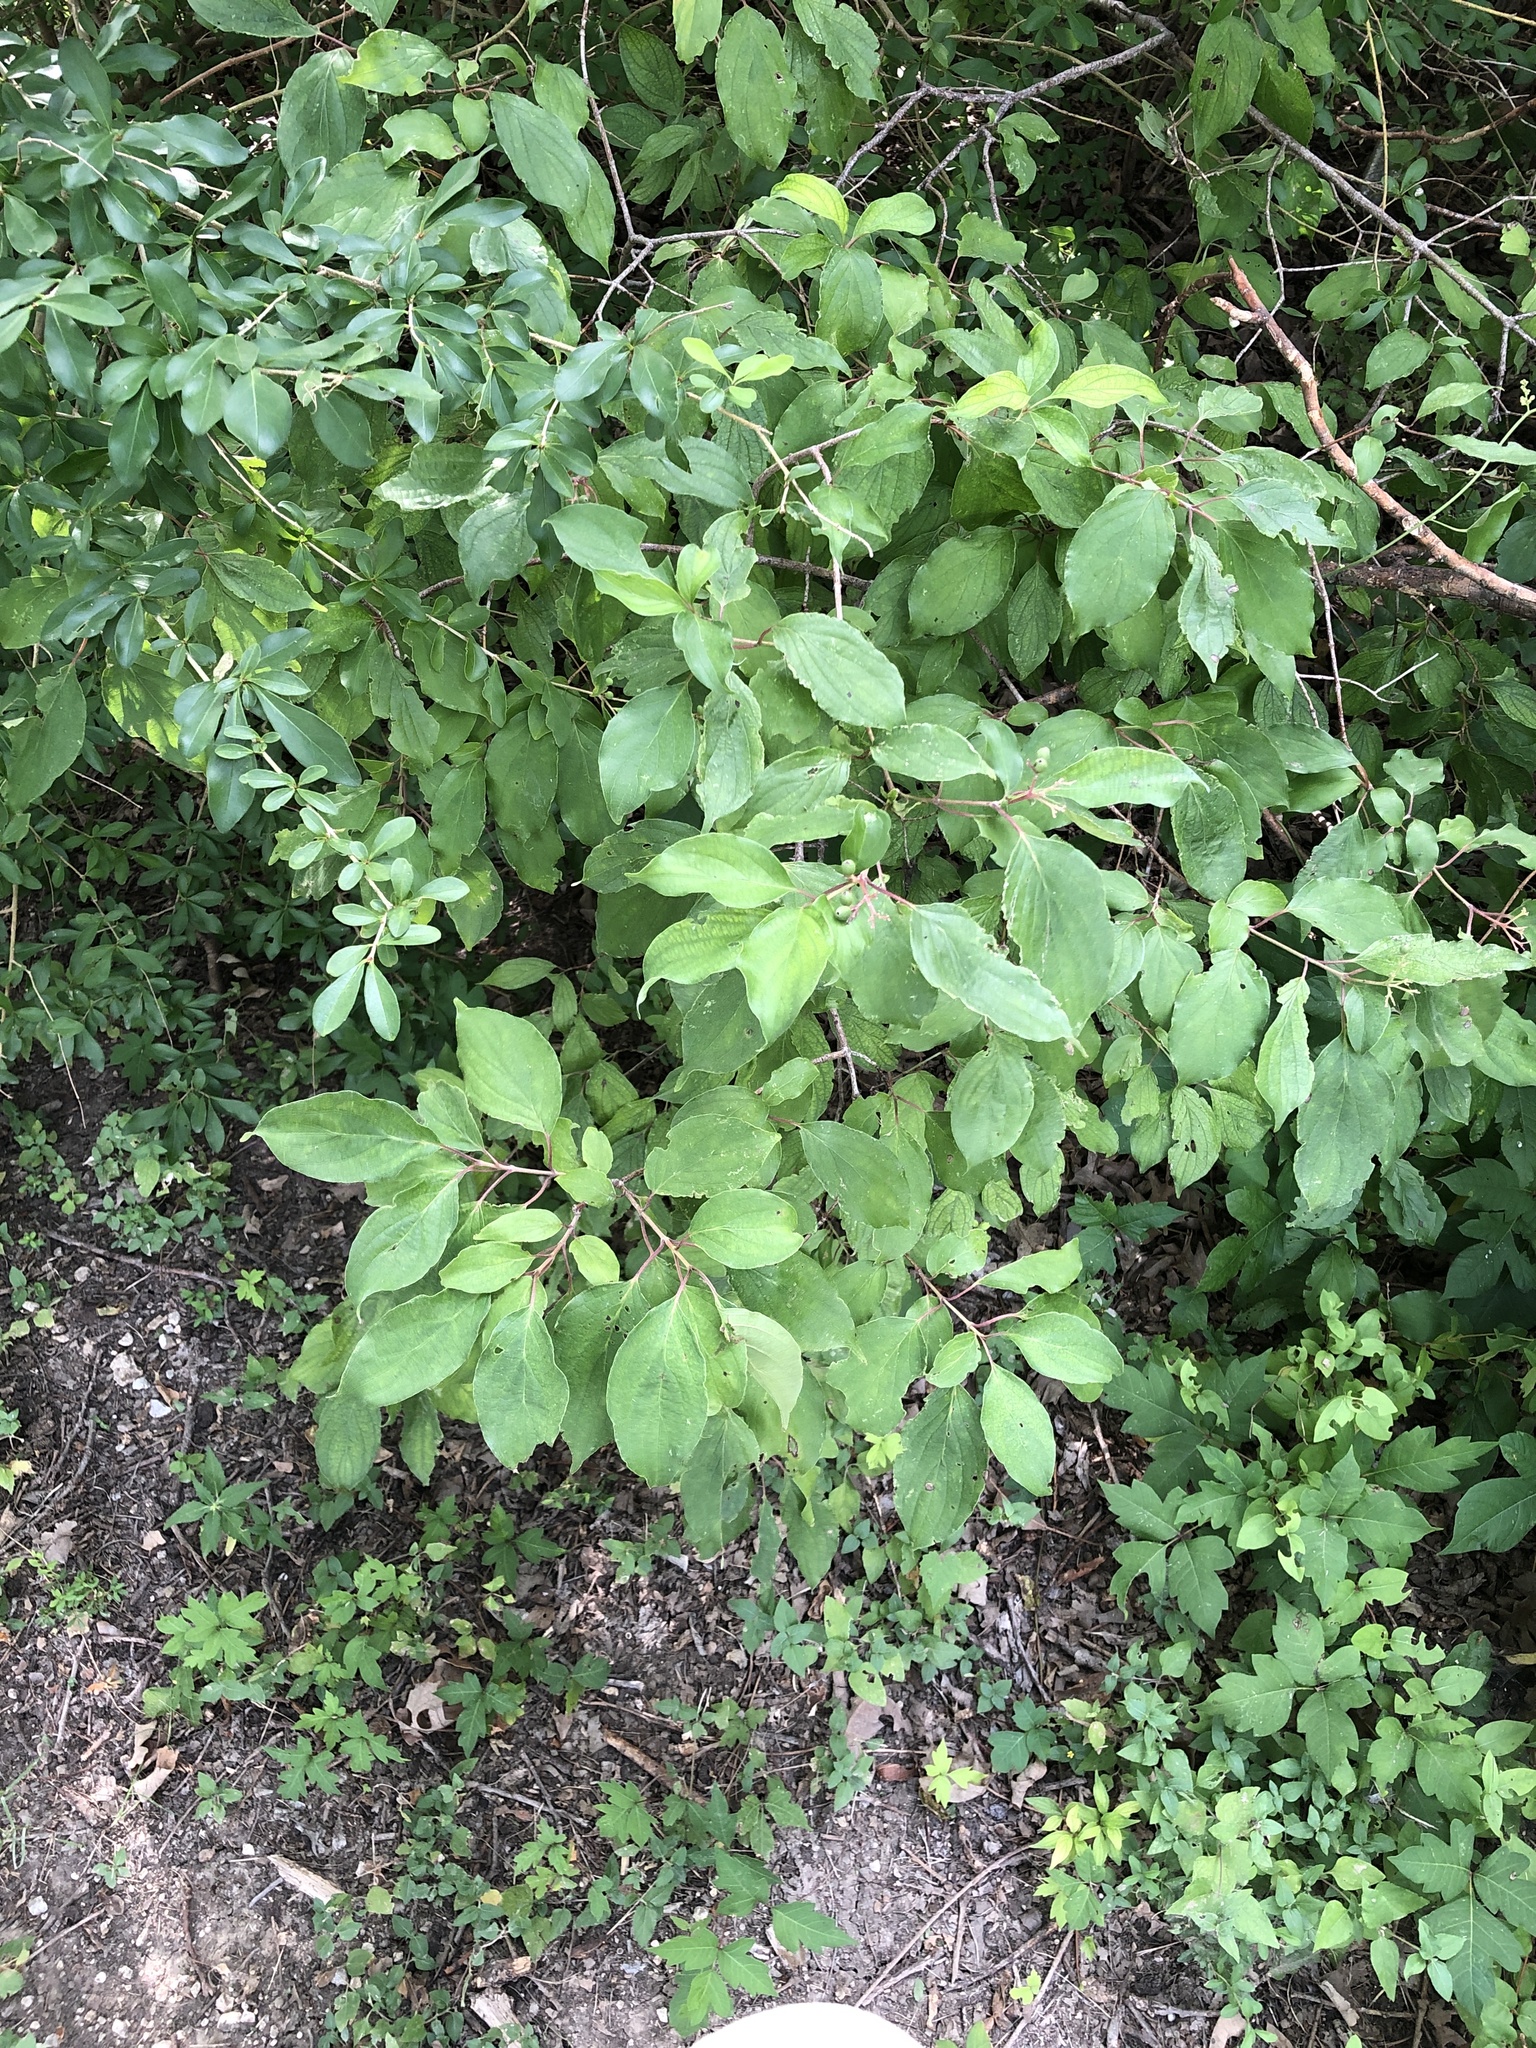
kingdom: Plantae
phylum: Tracheophyta
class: Magnoliopsida
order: Cornales
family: Cornaceae
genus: Cornus
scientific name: Cornus drummondii
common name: Rough-leaf dogwood
